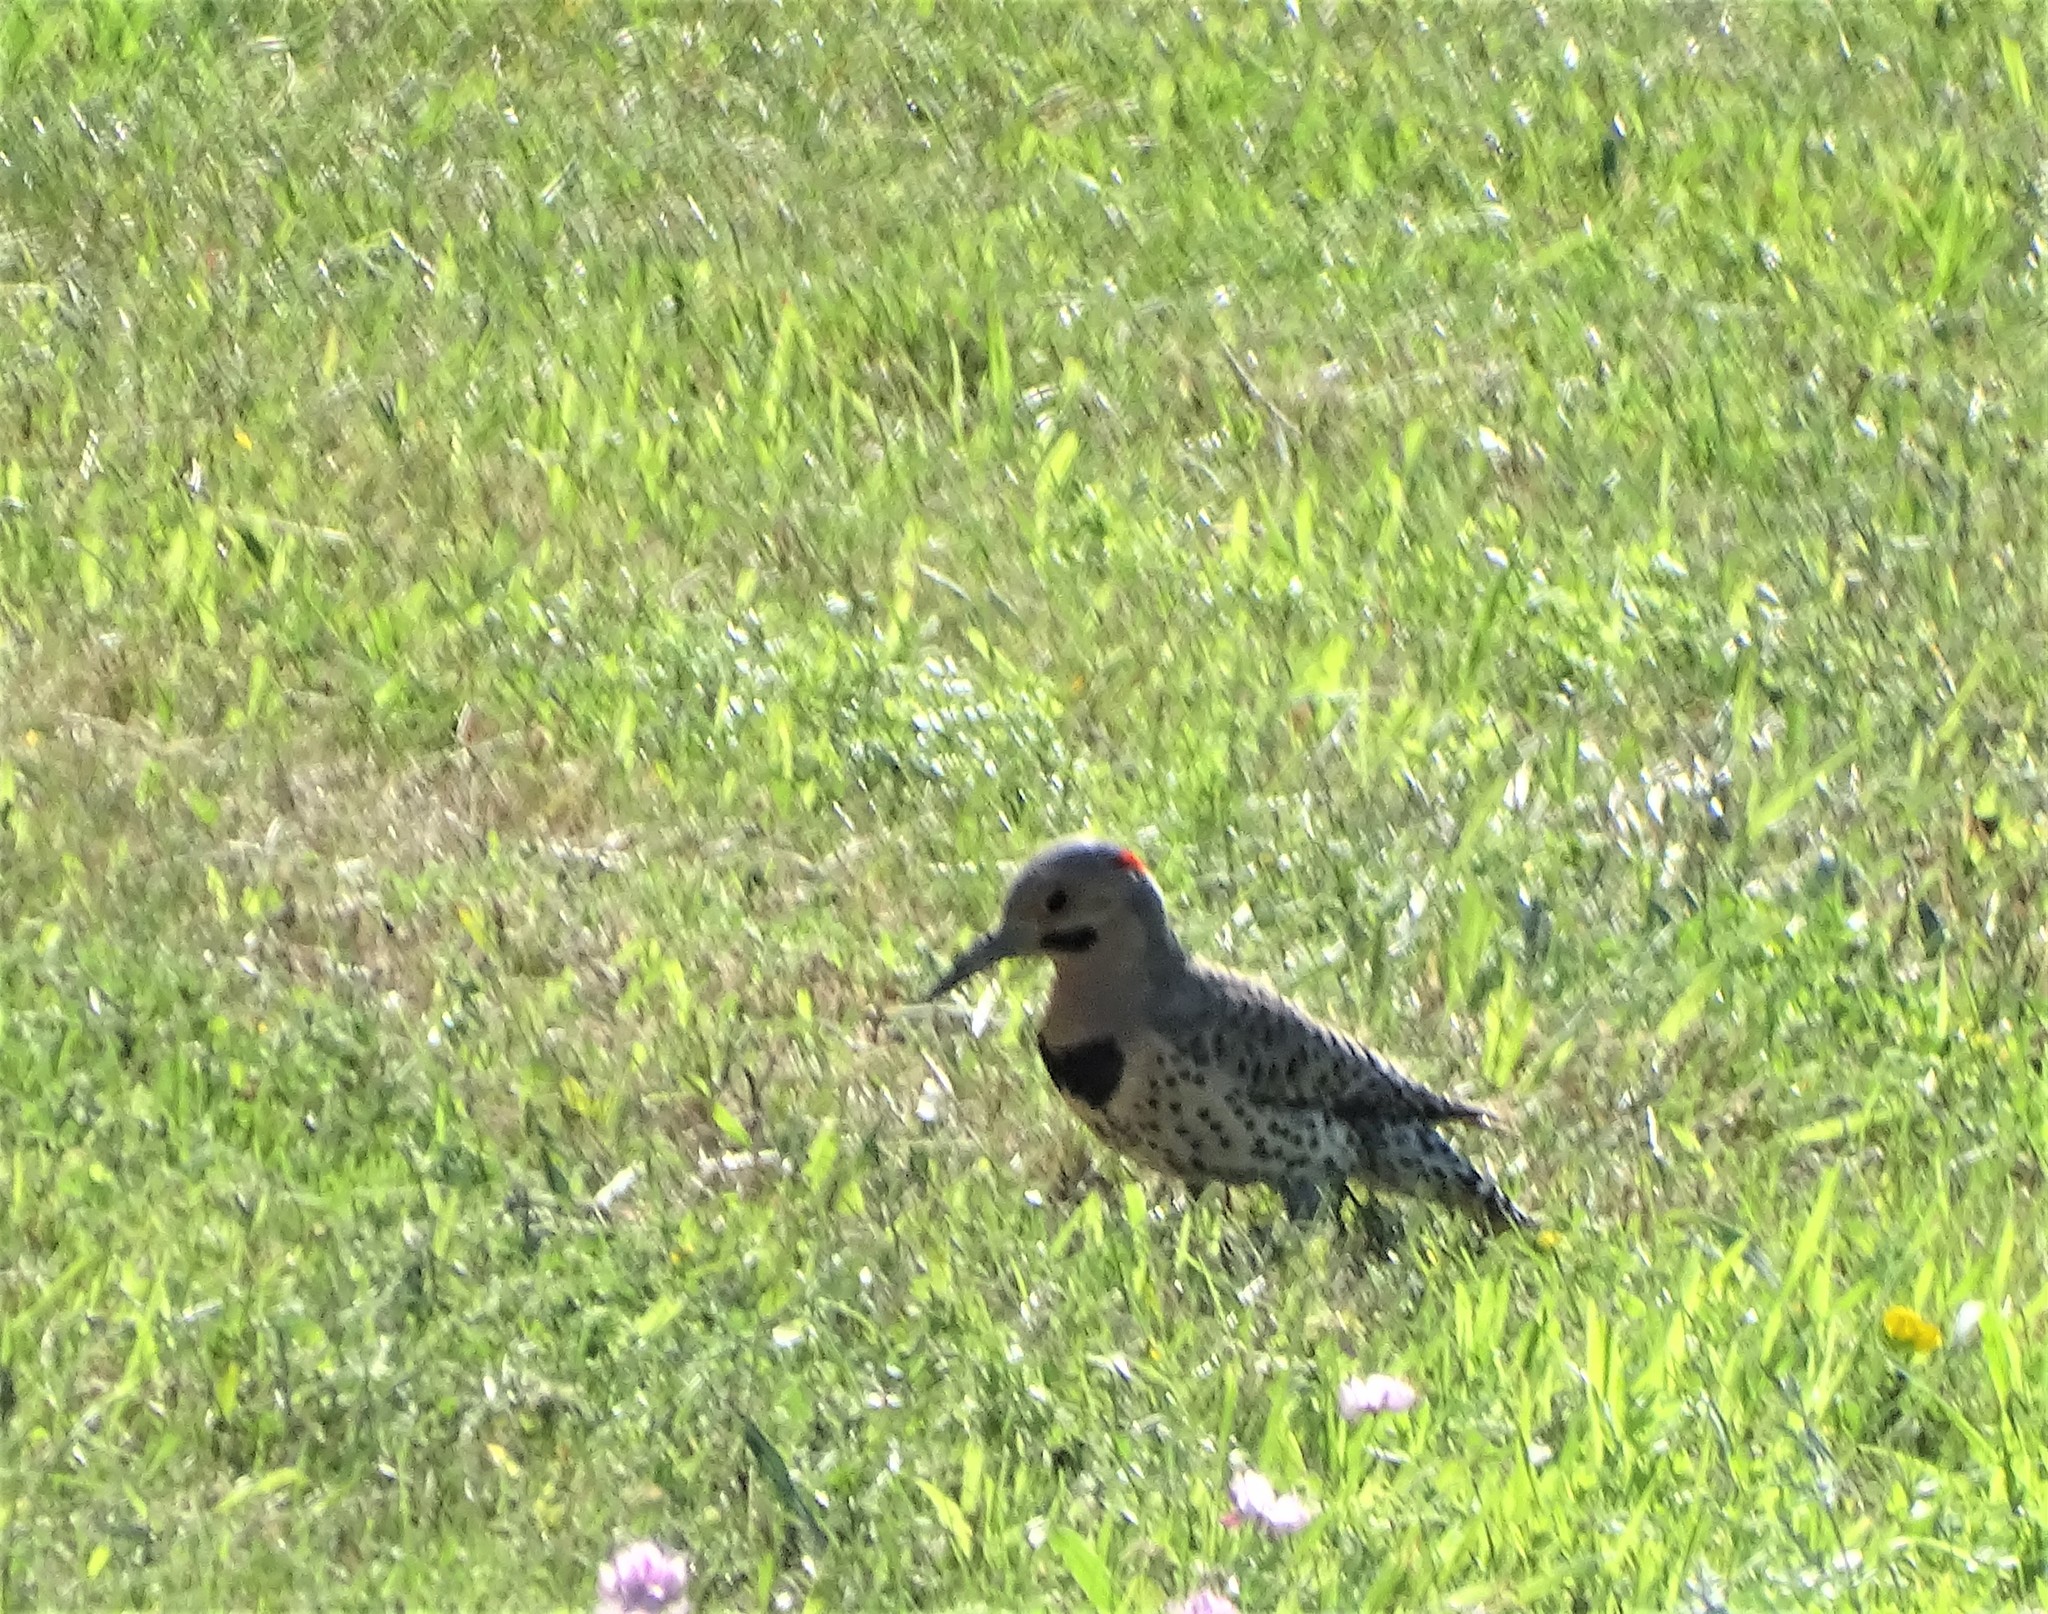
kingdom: Animalia
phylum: Chordata
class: Aves
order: Piciformes
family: Picidae
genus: Colaptes
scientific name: Colaptes auratus
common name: Northern flicker
